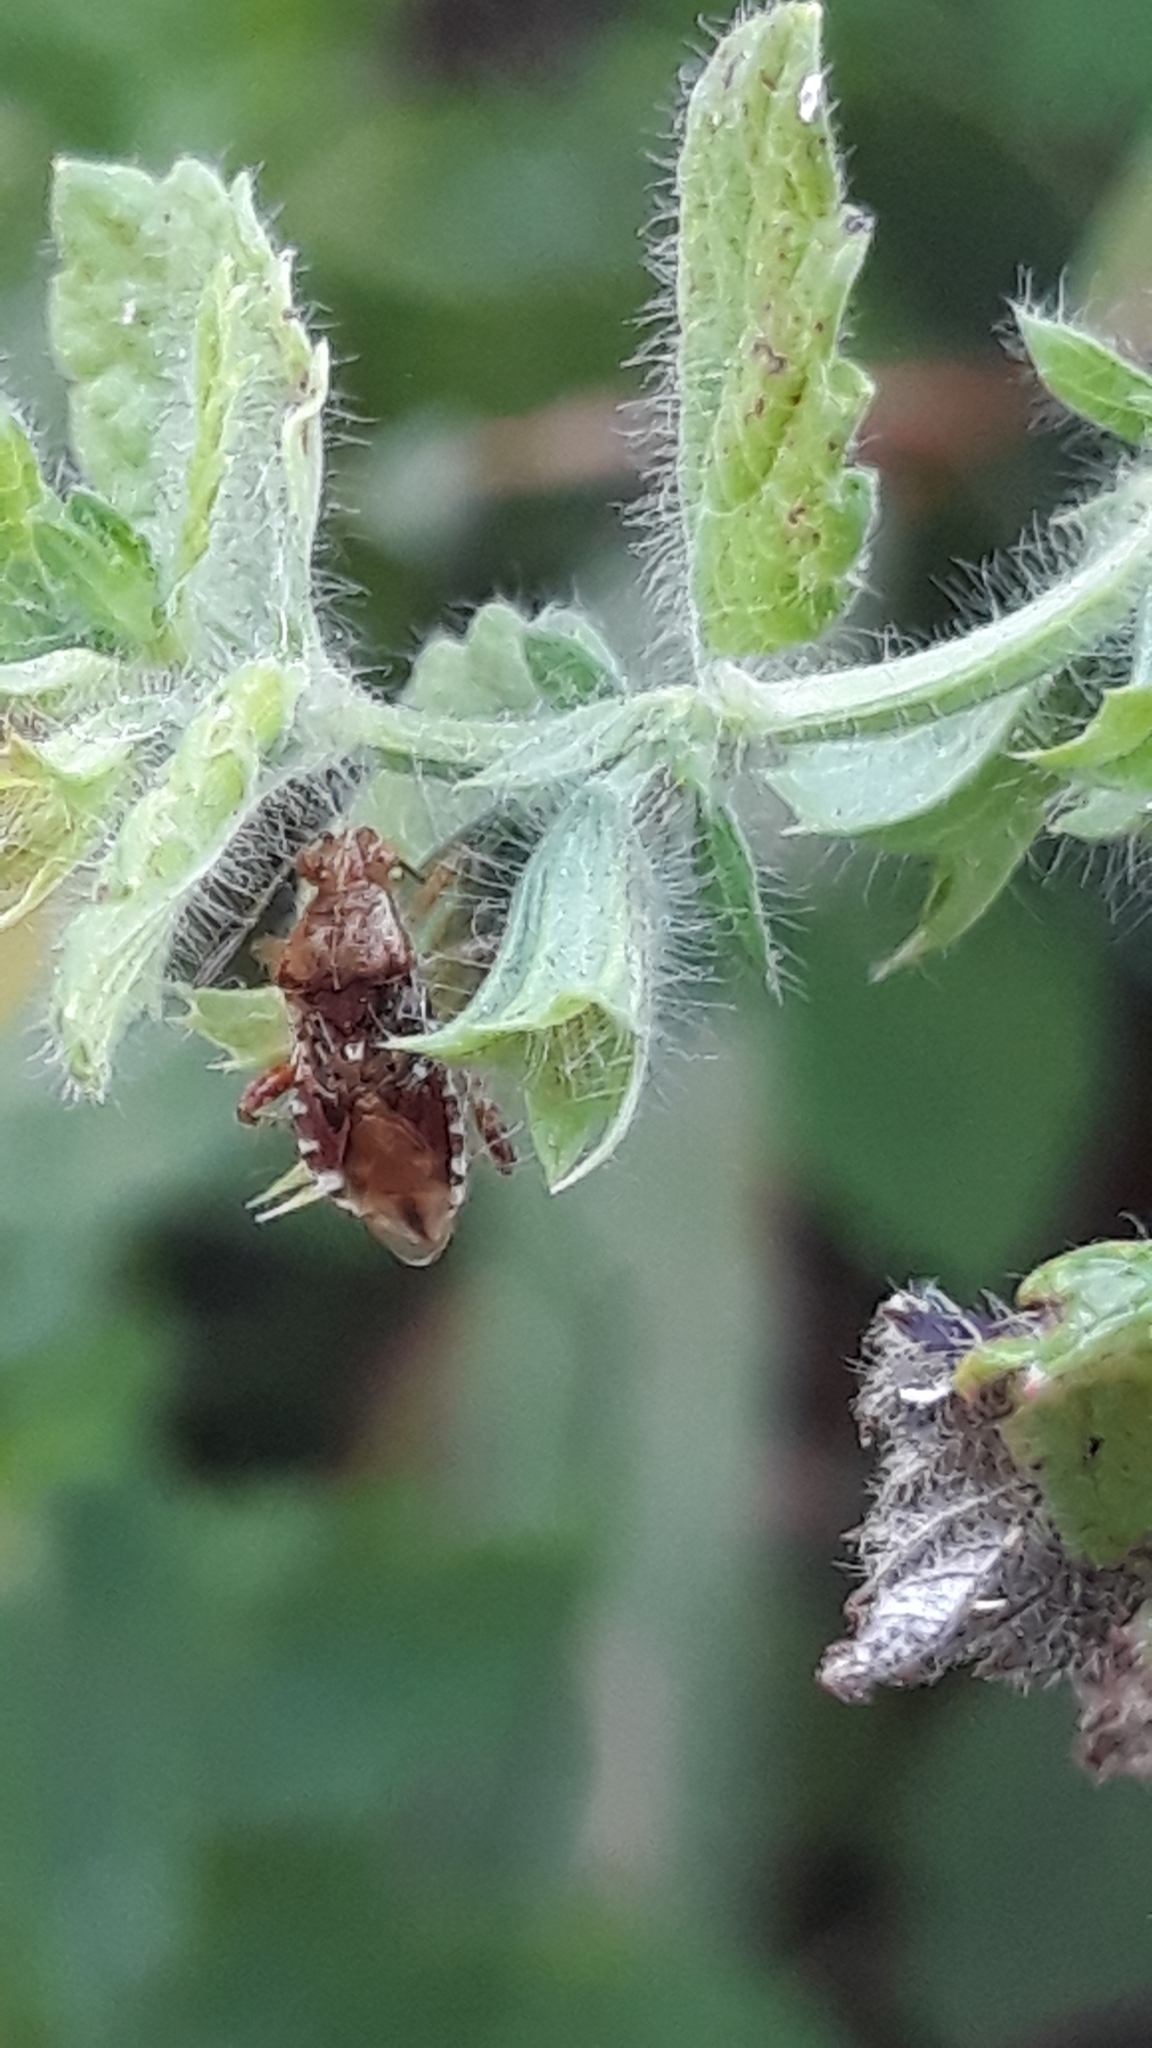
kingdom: Animalia
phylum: Arthropoda
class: Insecta
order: Hemiptera
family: Rhopalidae
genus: Rhopalus
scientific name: Rhopalus subrufus
